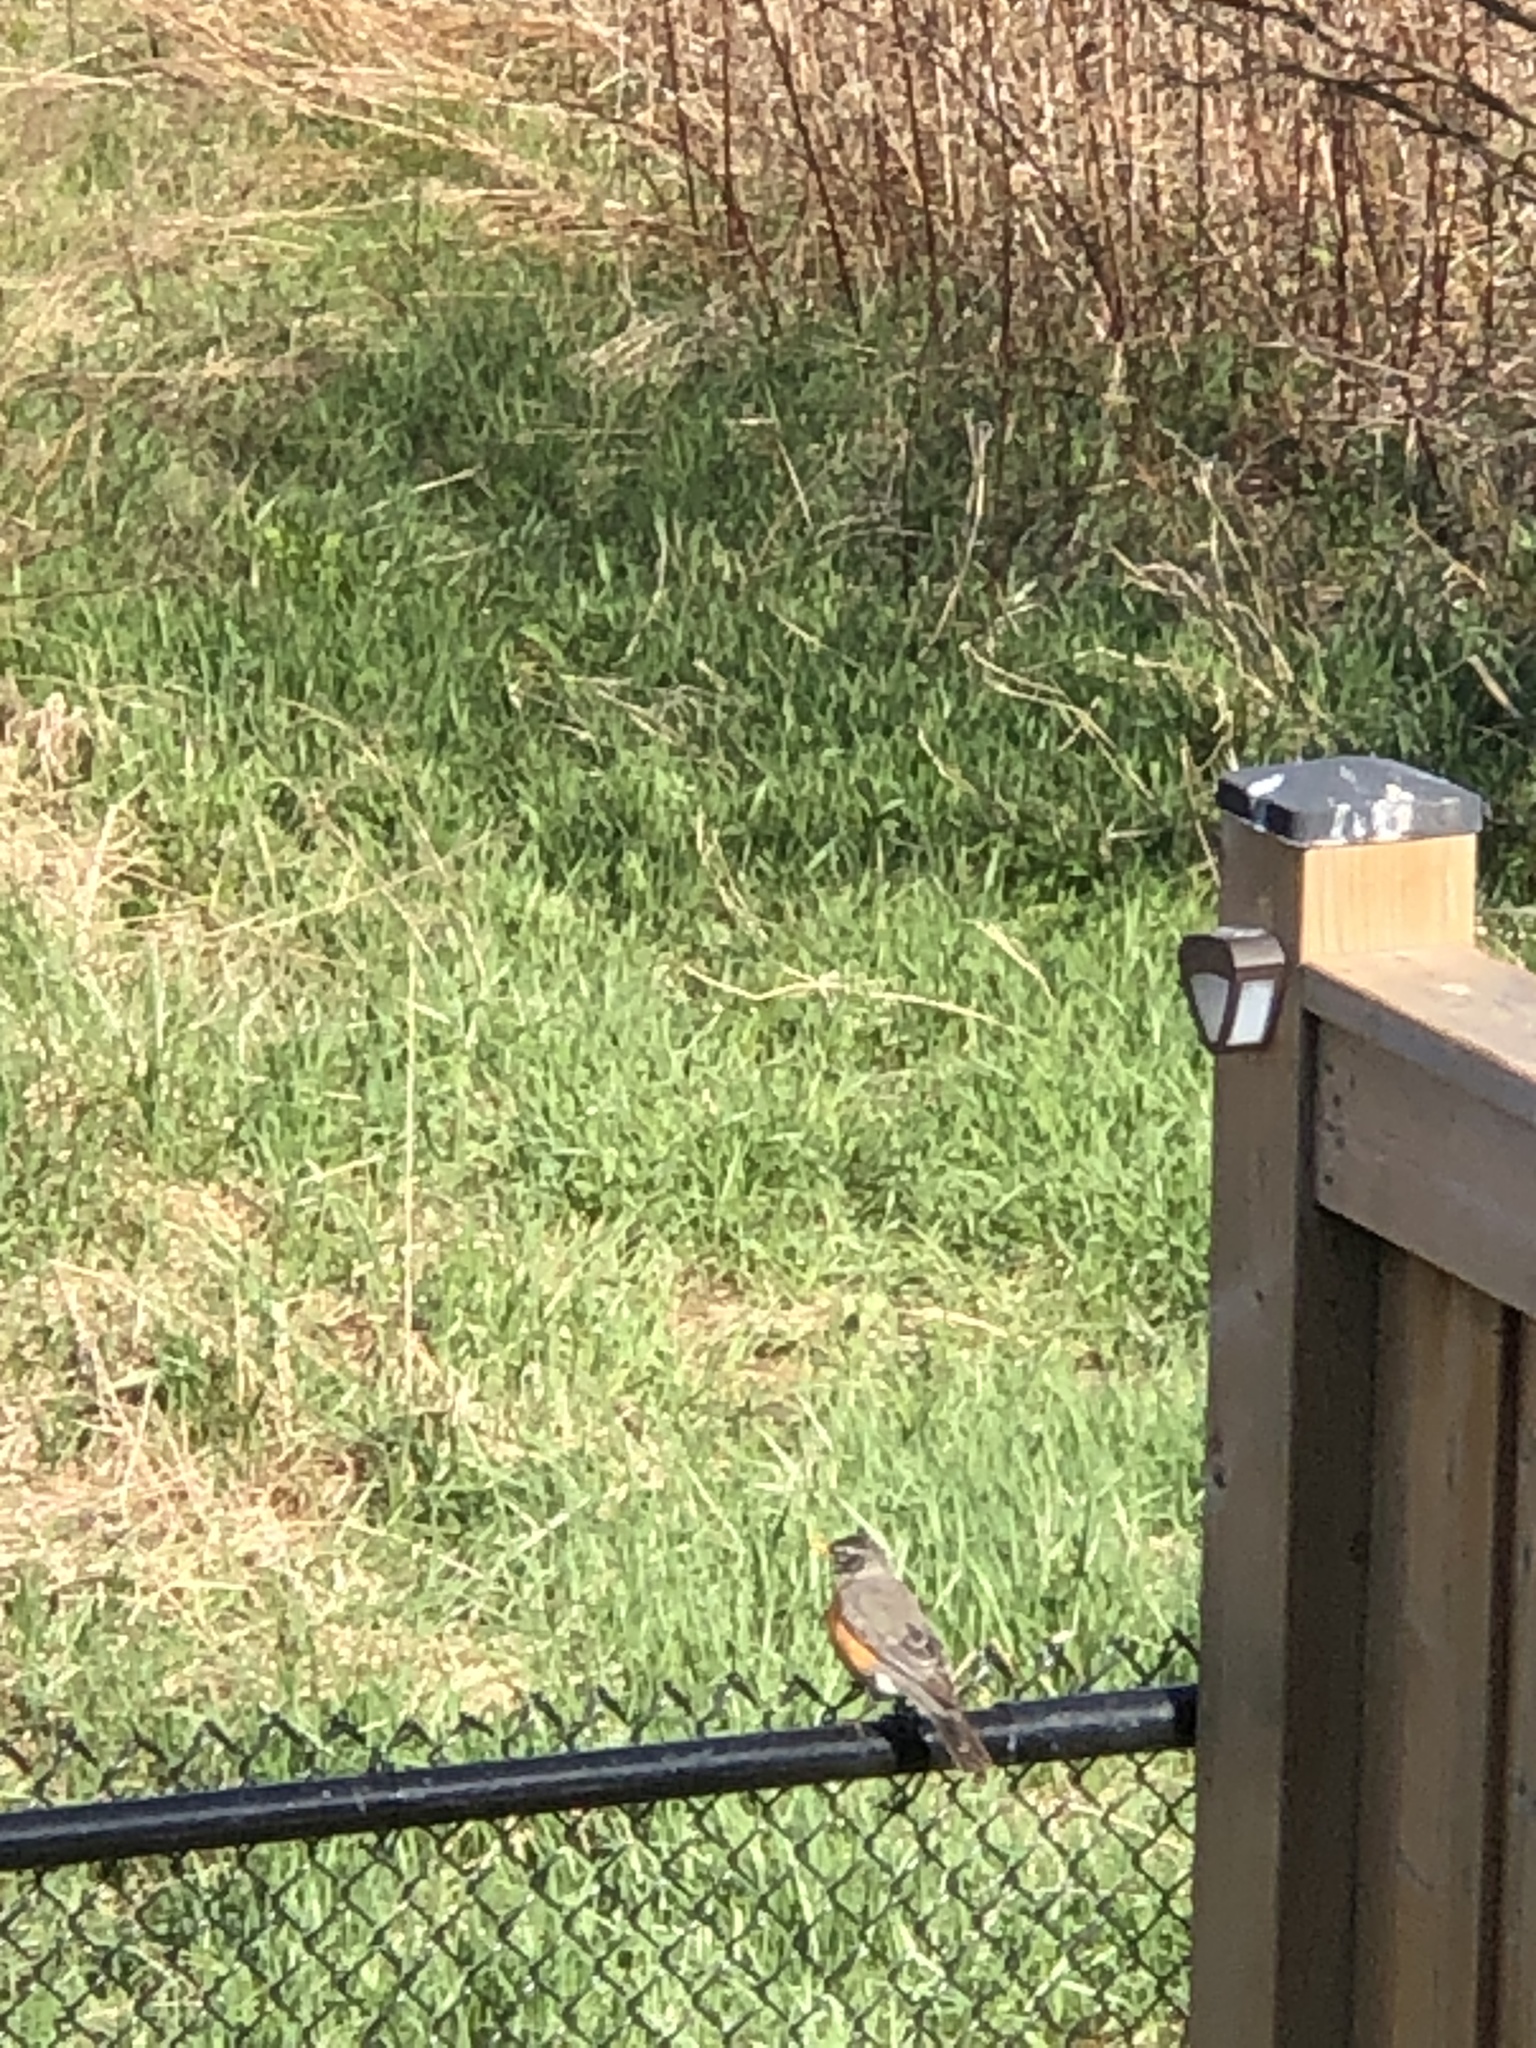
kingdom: Animalia
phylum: Chordata
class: Aves
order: Passeriformes
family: Turdidae
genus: Turdus
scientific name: Turdus migratorius
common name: American robin
